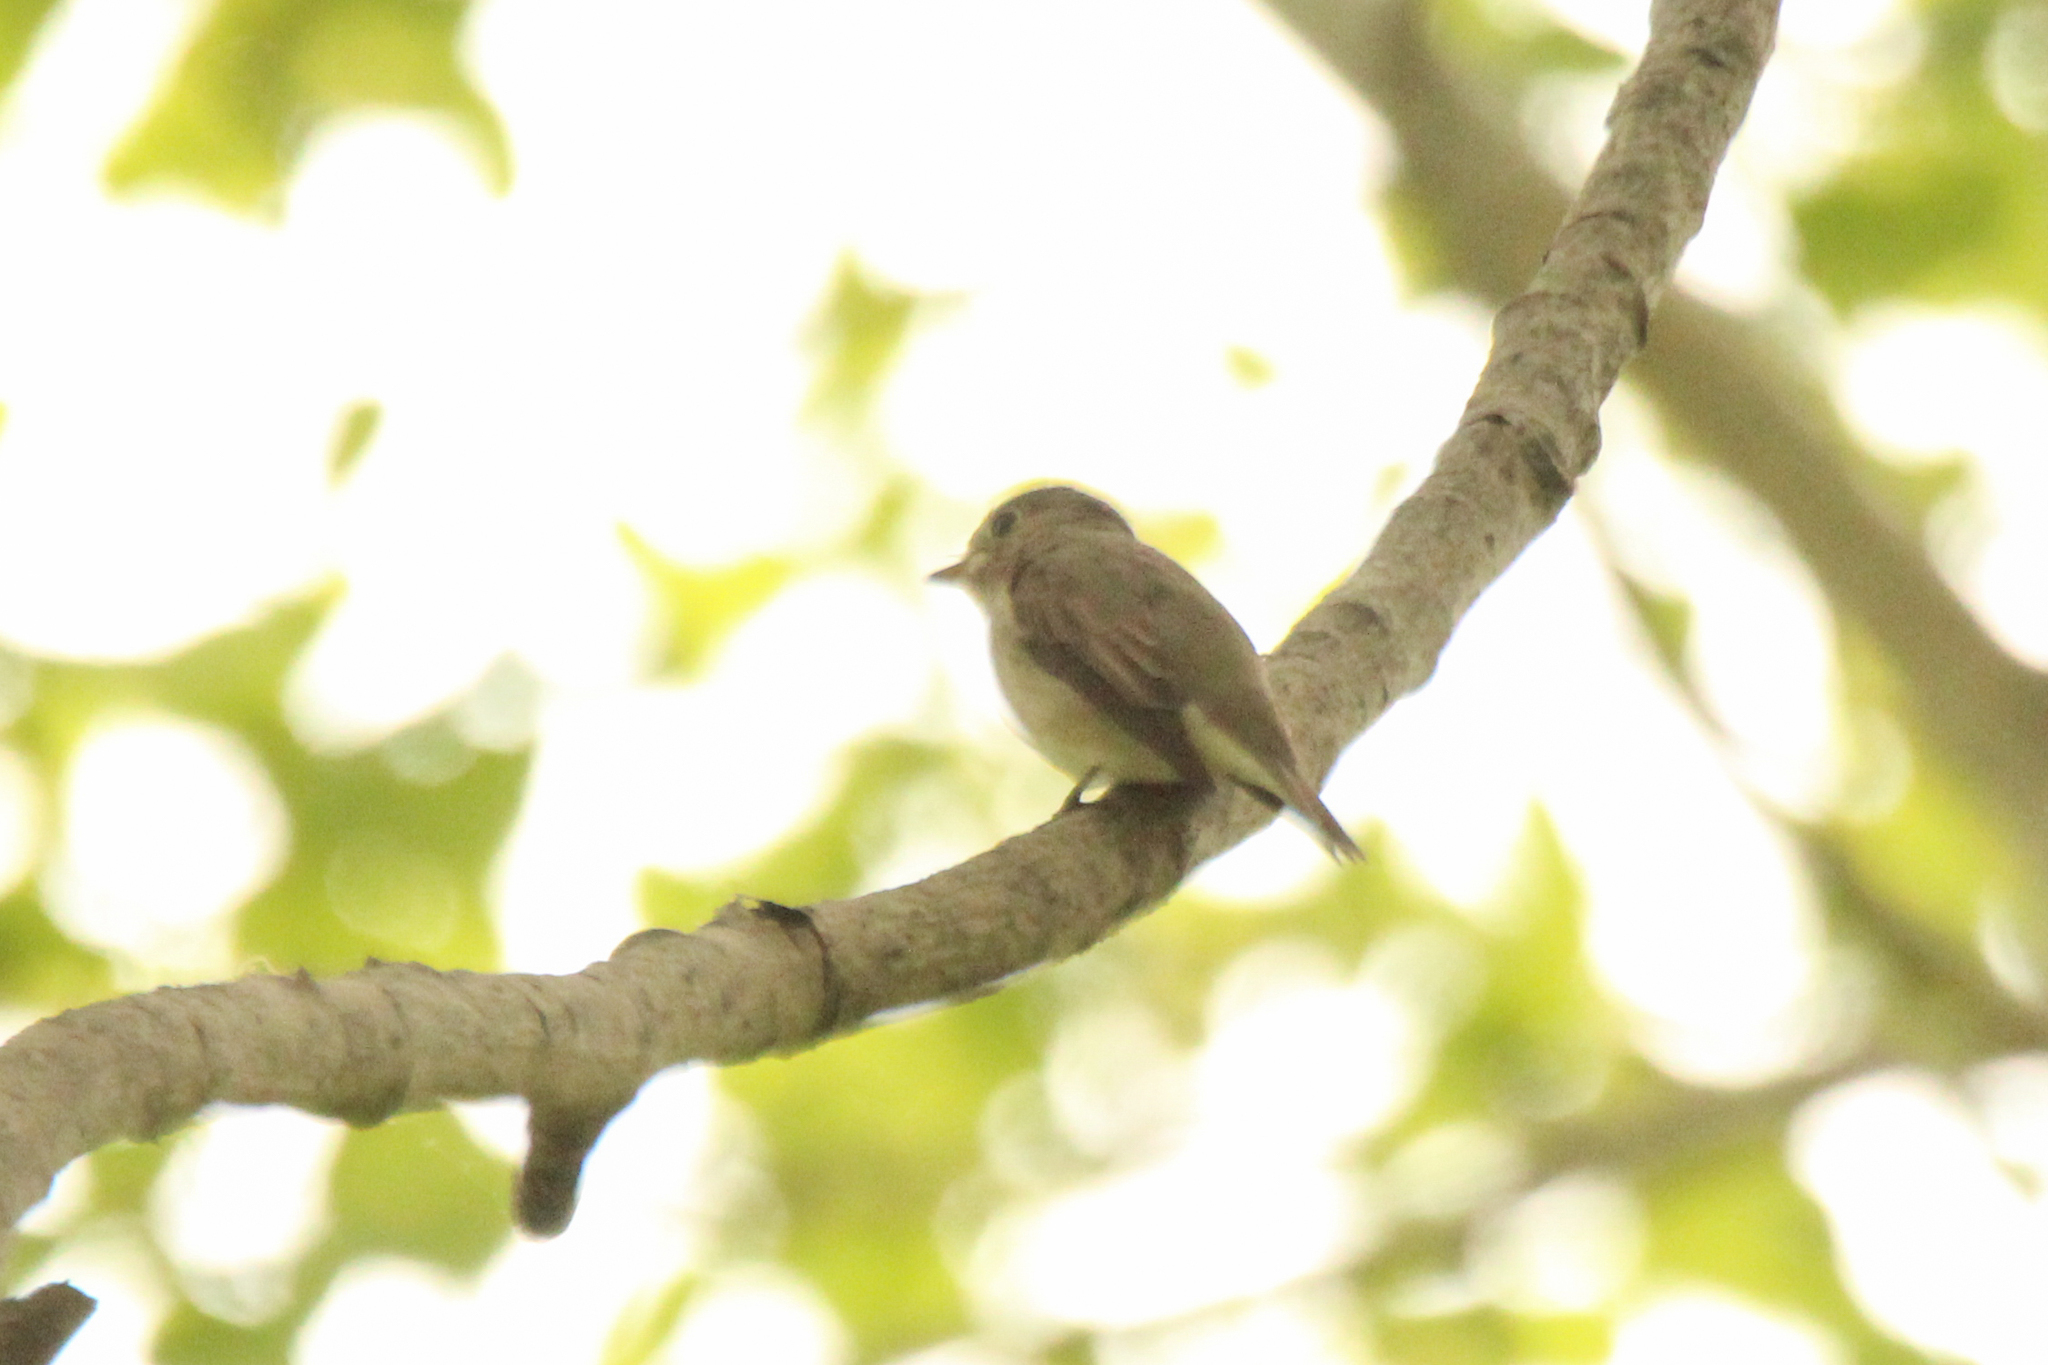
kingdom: Animalia
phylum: Chordata
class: Aves
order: Passeriformes
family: Muscicapidae
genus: Muscicapa
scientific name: Muscicapa latirostris
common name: Asian brown flycatcher
